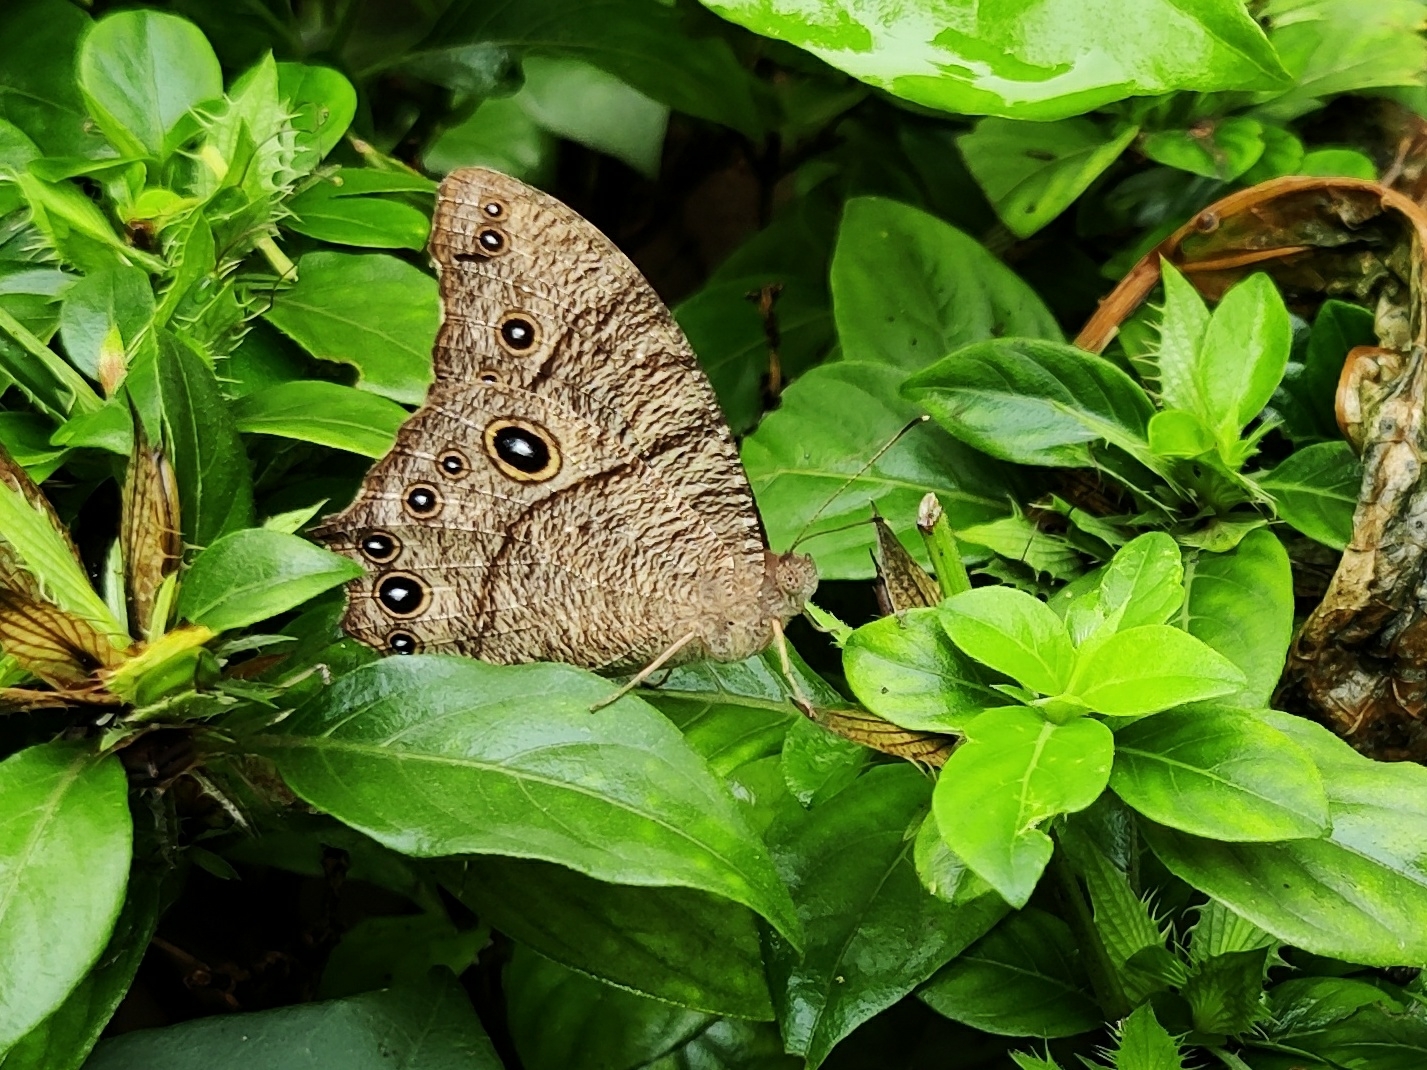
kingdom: Animalia
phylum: Arthropoda
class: Insecta
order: Lepidoptera
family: Nymphalidae
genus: Melanitis
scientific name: Melanitis leda
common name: Twilight brown
